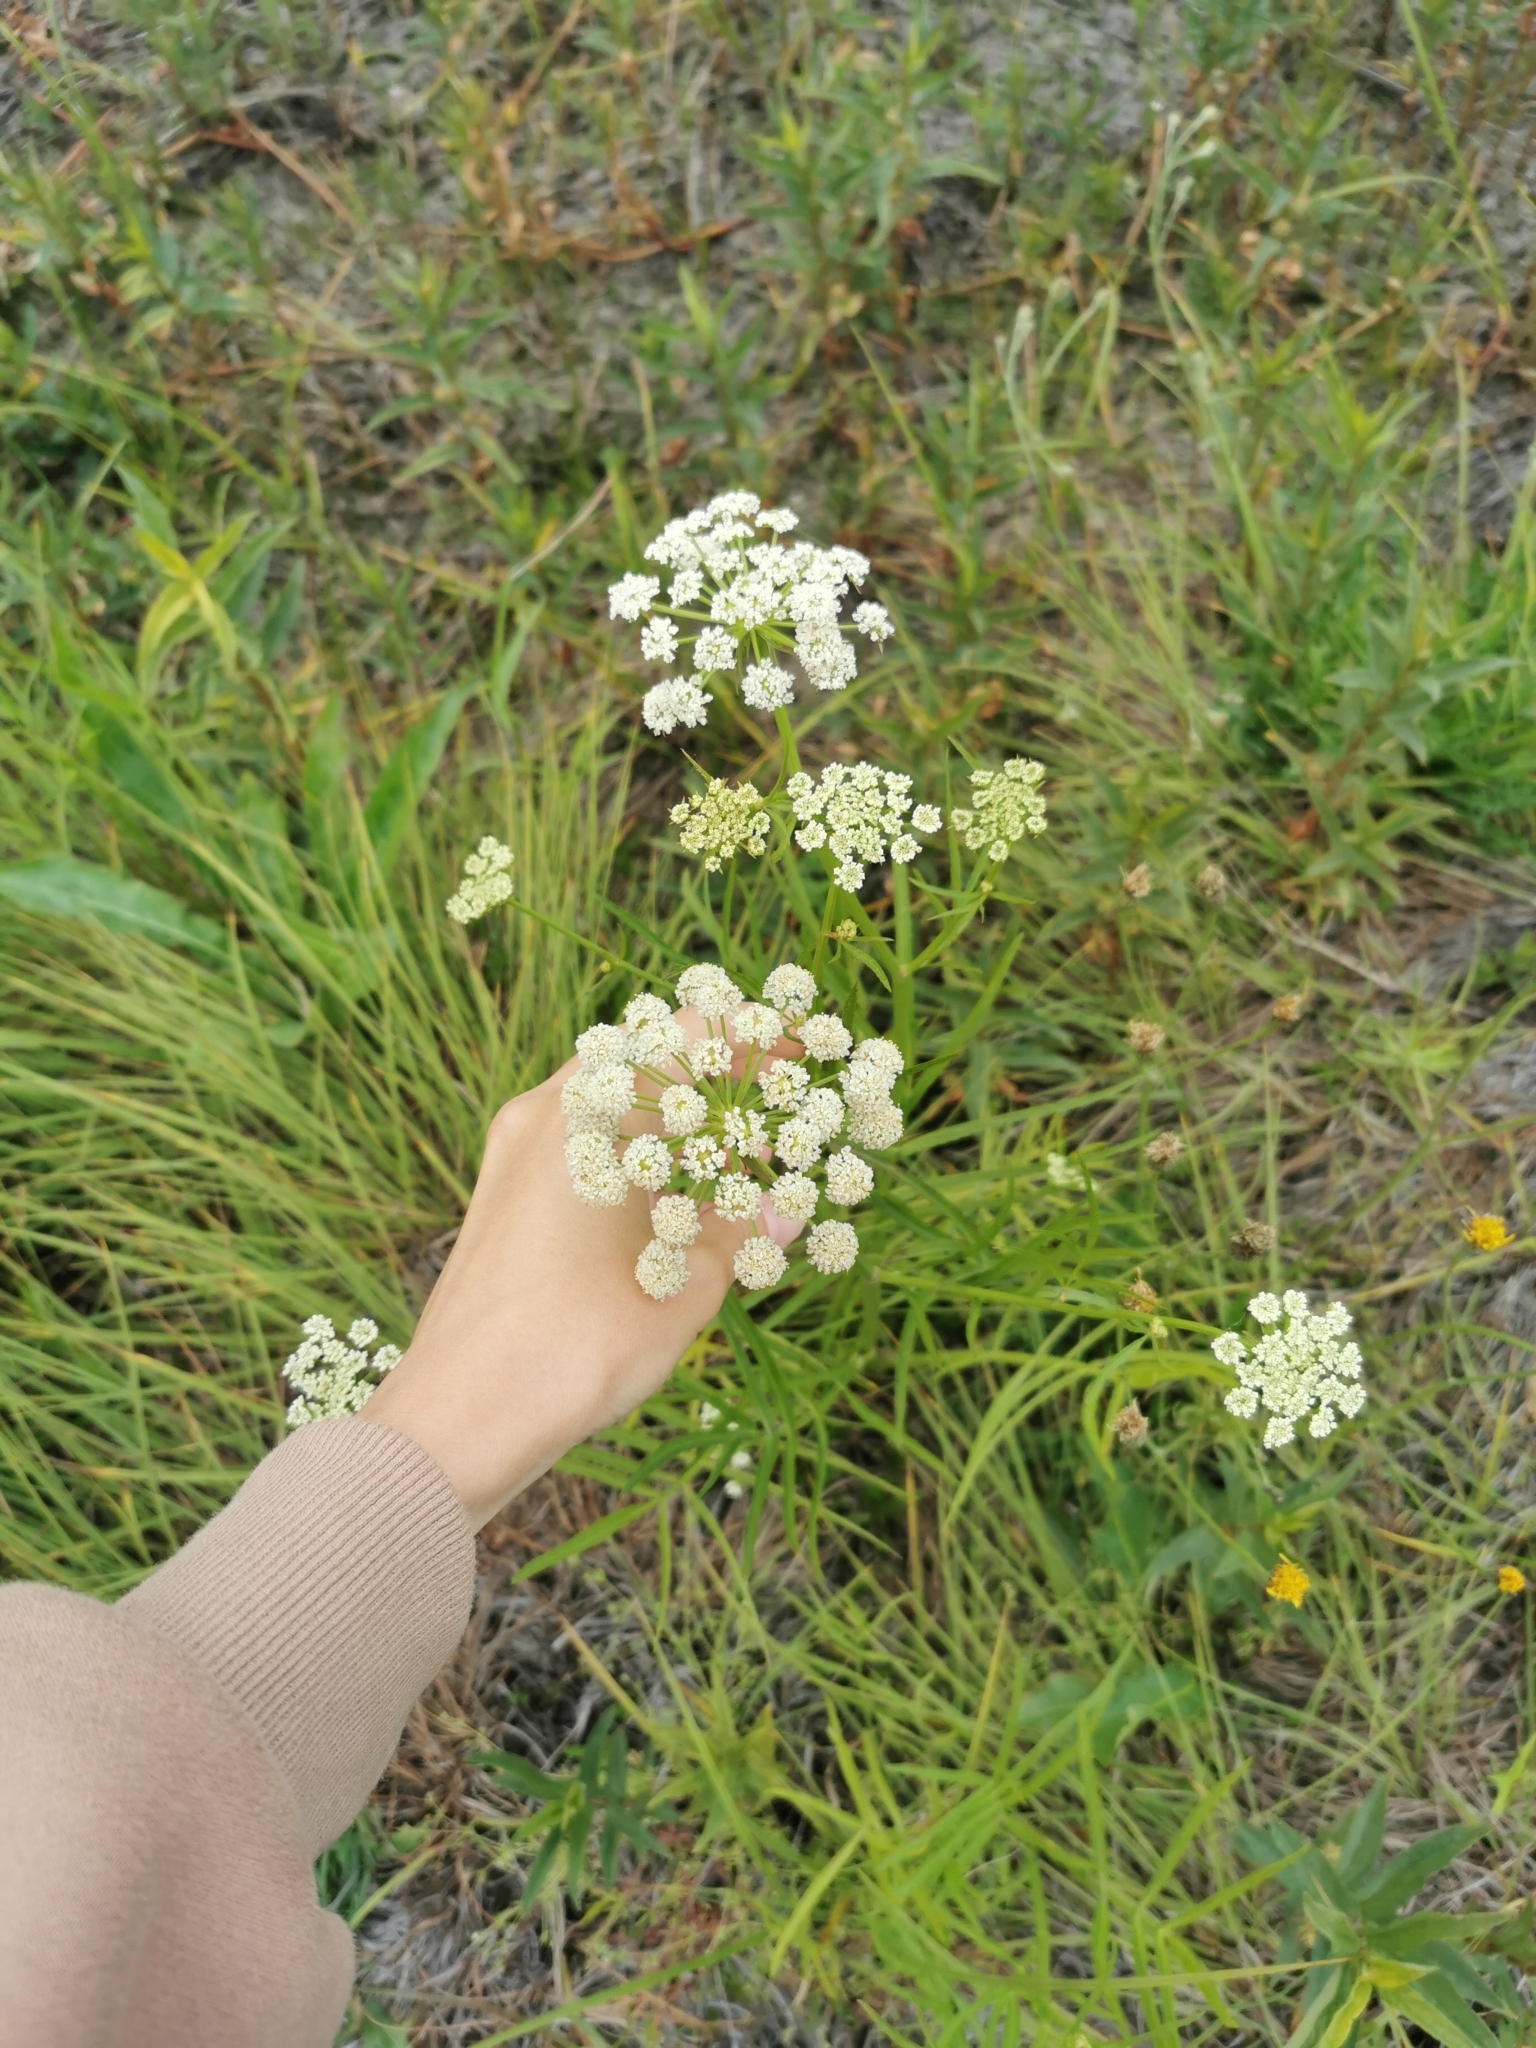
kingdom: Plantae
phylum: Tracheophyta
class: Magnoliopsida
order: Apiales
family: Apiaceae
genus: Sium
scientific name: Sium suave
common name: Hemlock water-parsnip
